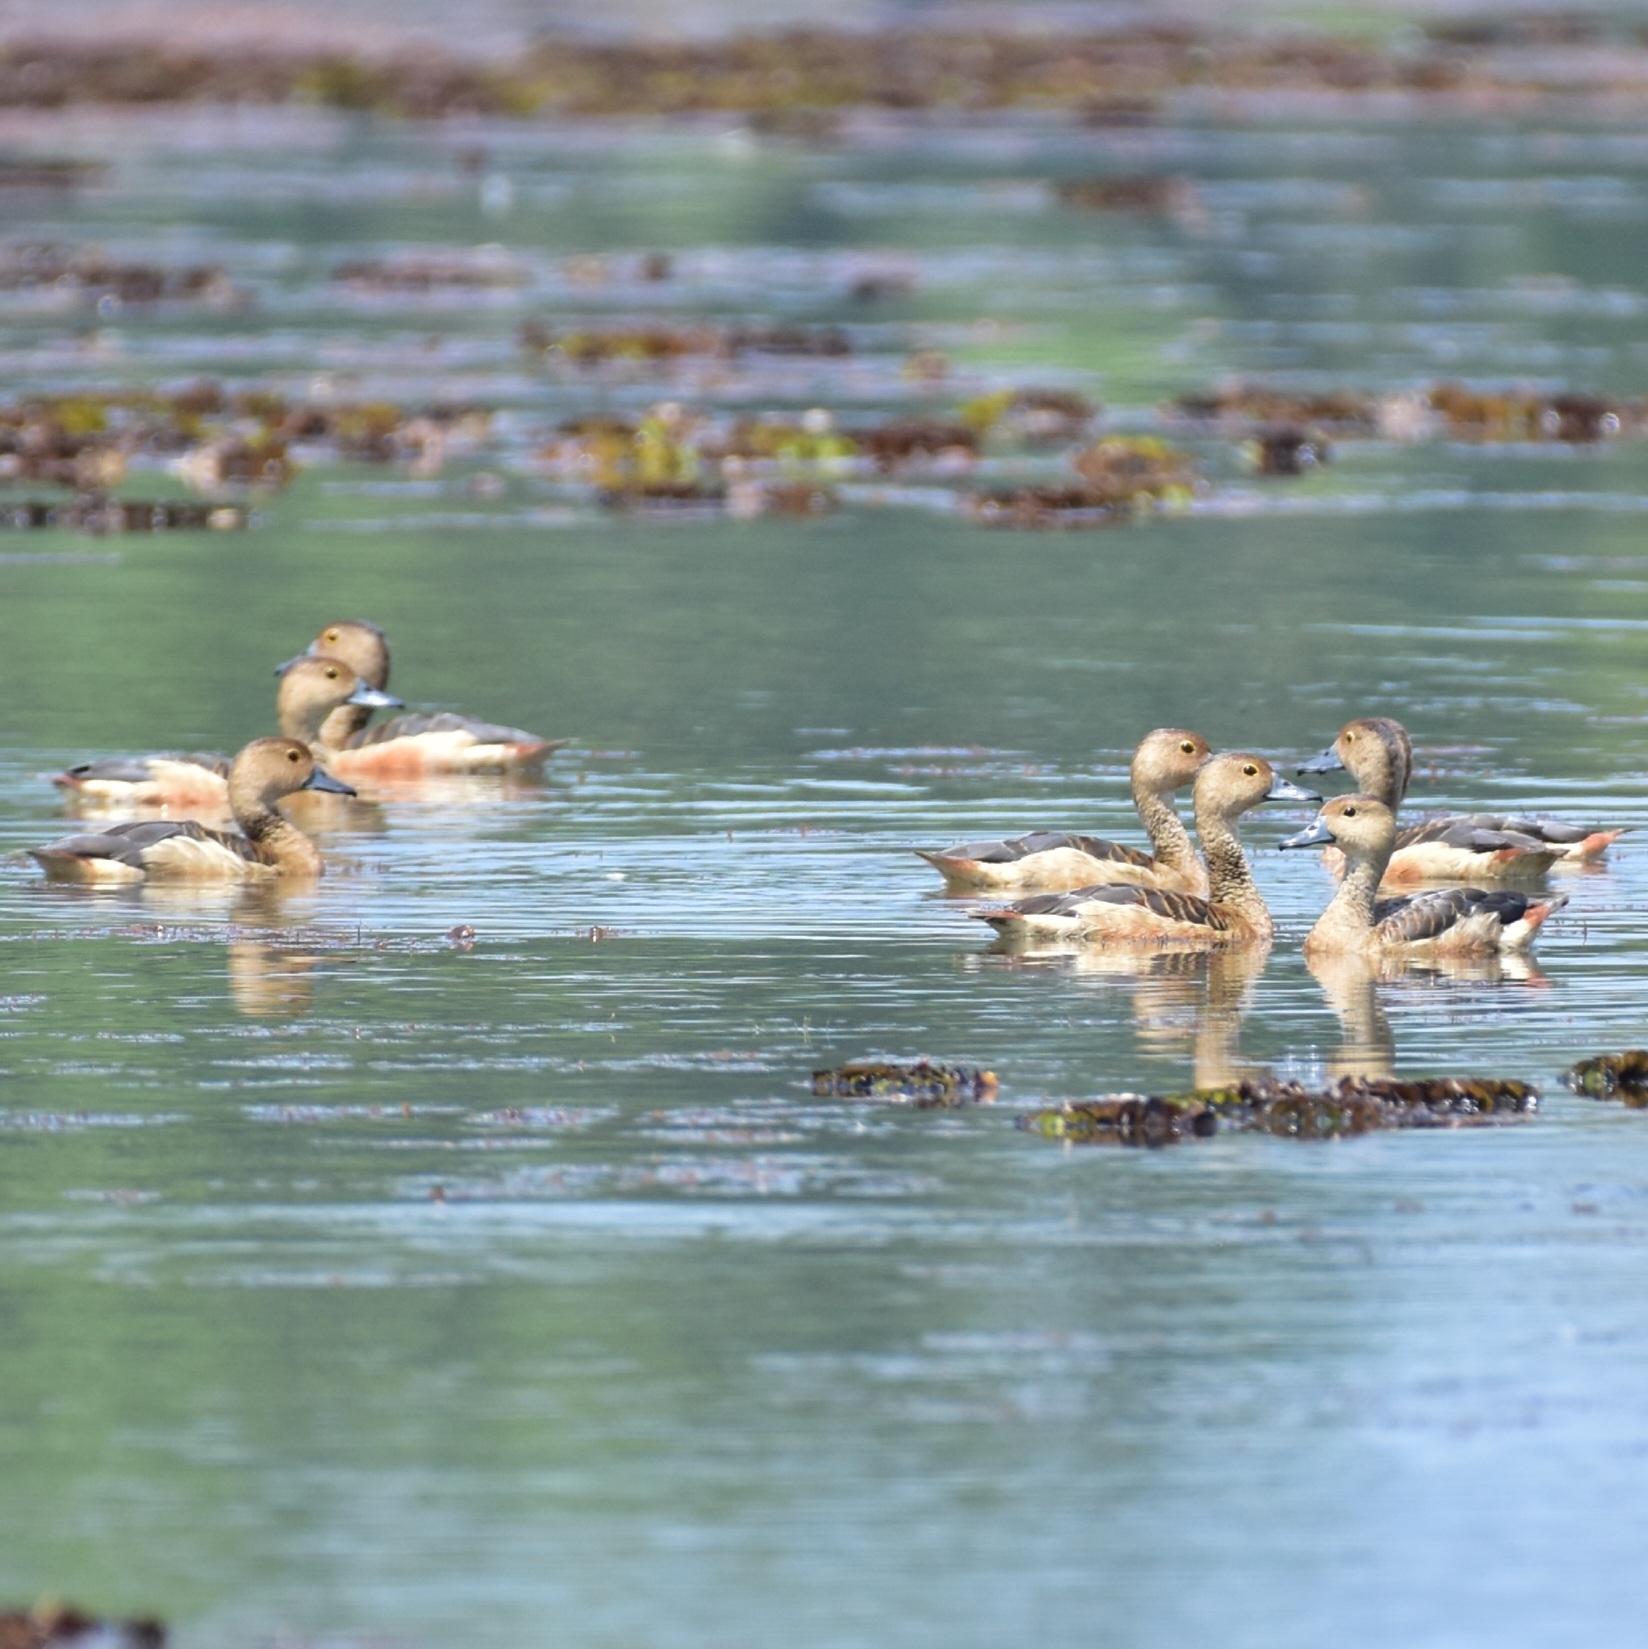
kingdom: Animalia
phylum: Chordata
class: Aves
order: Anseriformes
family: Anatidae
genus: Dendrocygna
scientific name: Dendrocygna javanica
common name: Lesser whistling-duck
